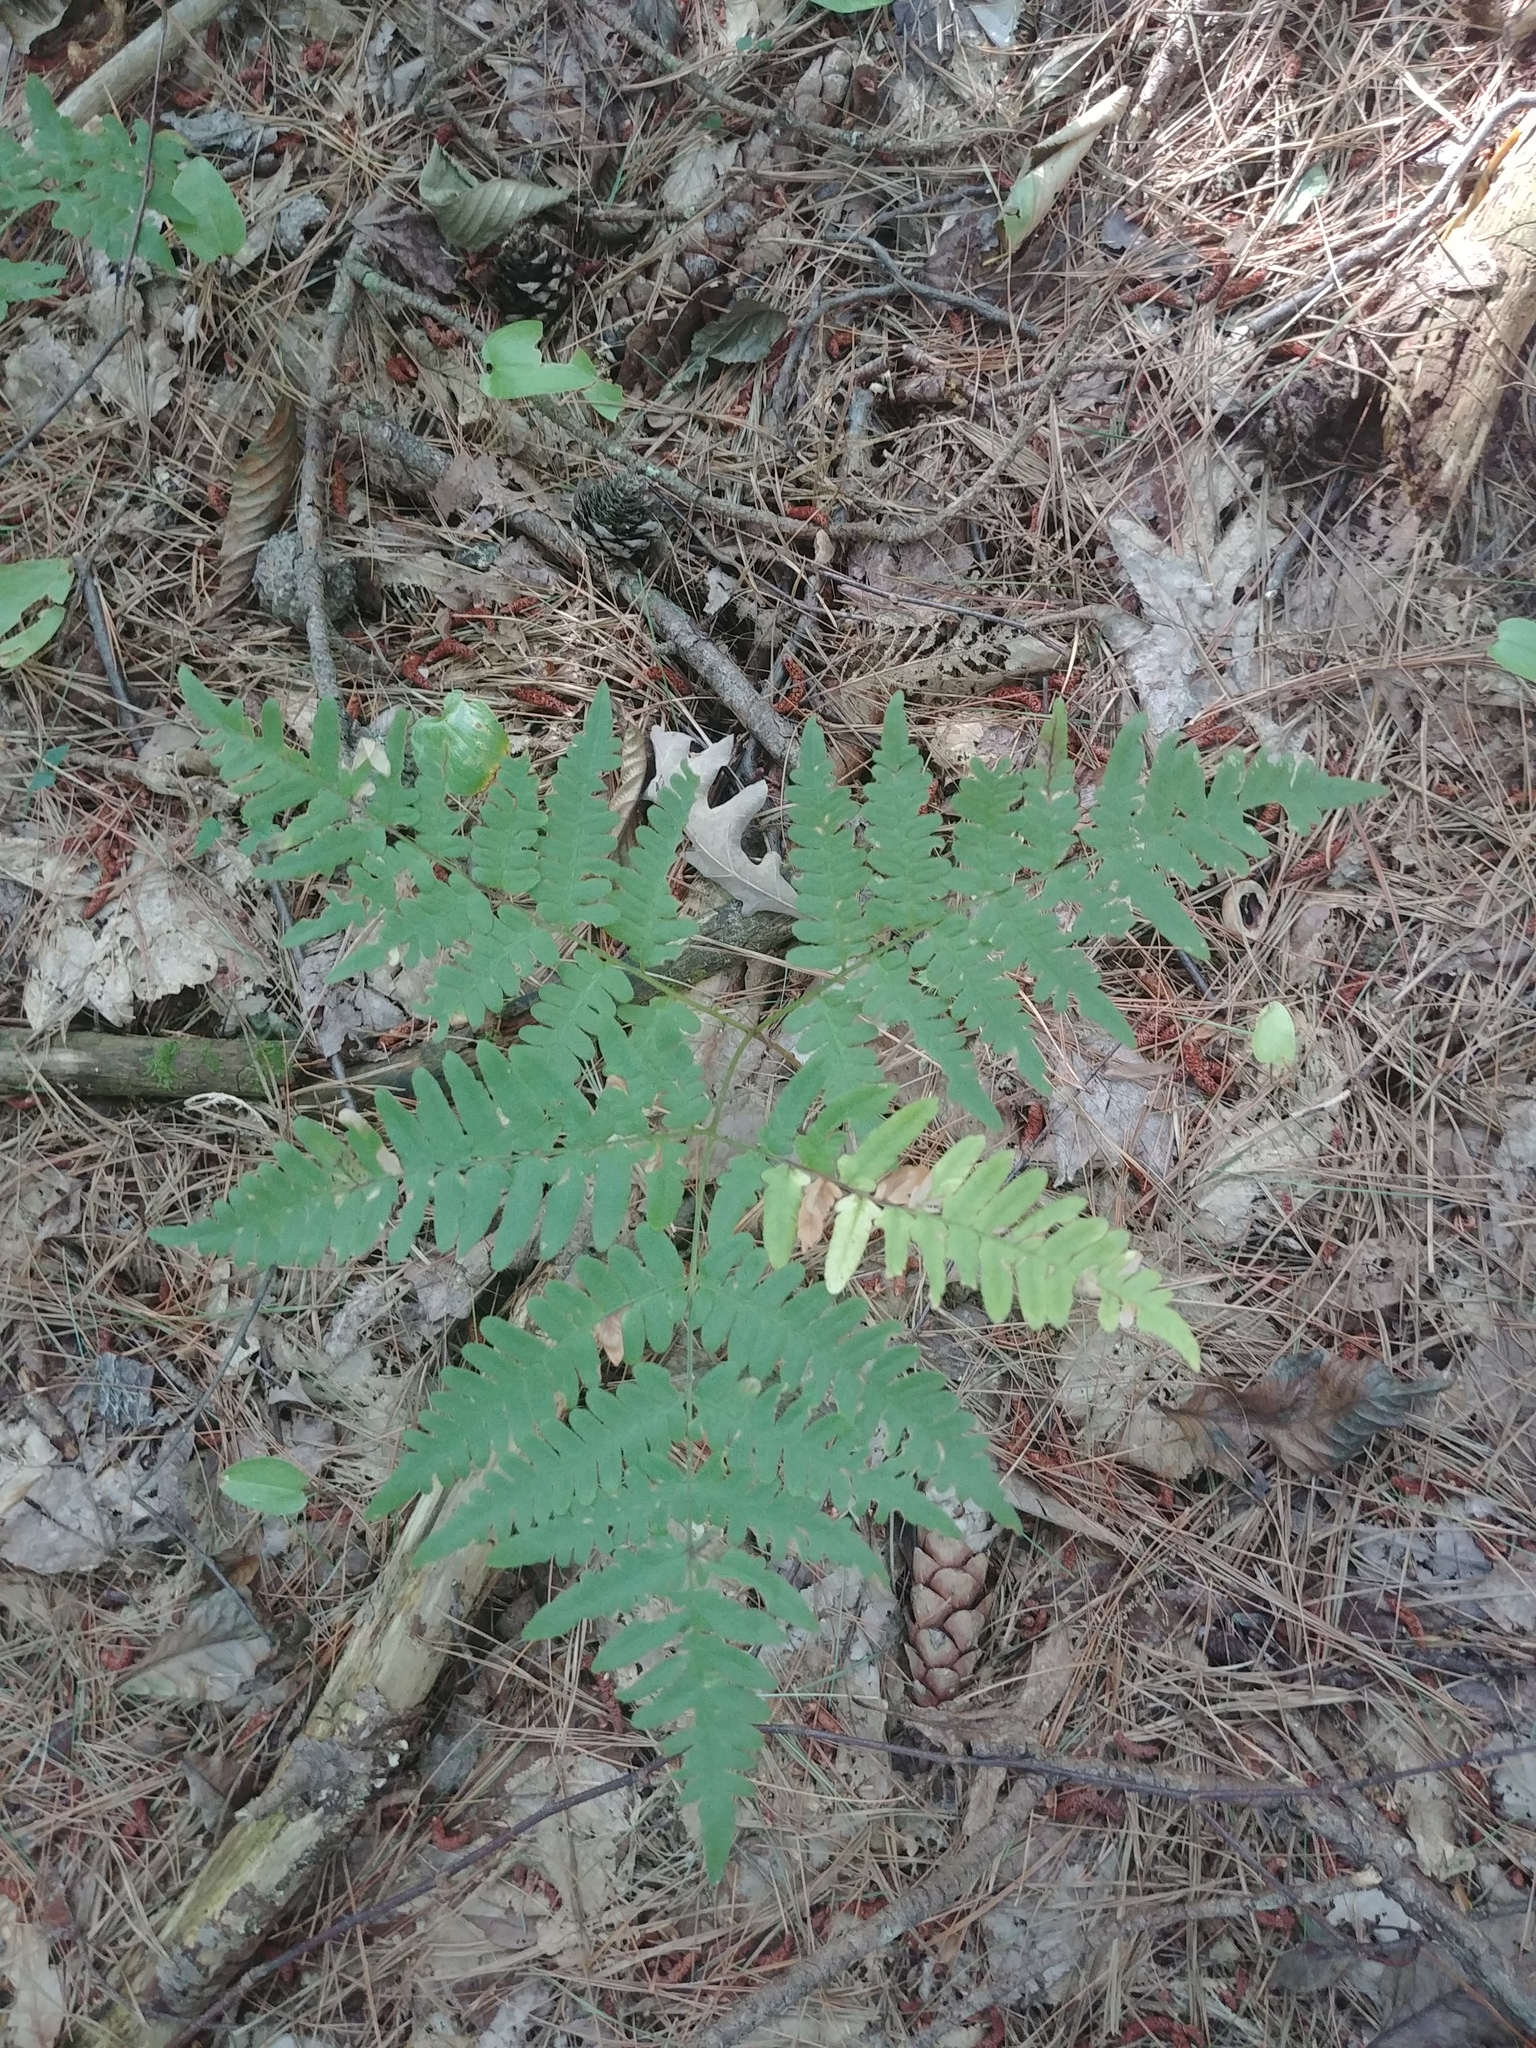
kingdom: Plantae
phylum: Tracheophyta
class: Polypodiopsida
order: Polypodiales
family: Dennstaedtiaceae
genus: Pteridium
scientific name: Pteridium aquilinum
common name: Bracken
